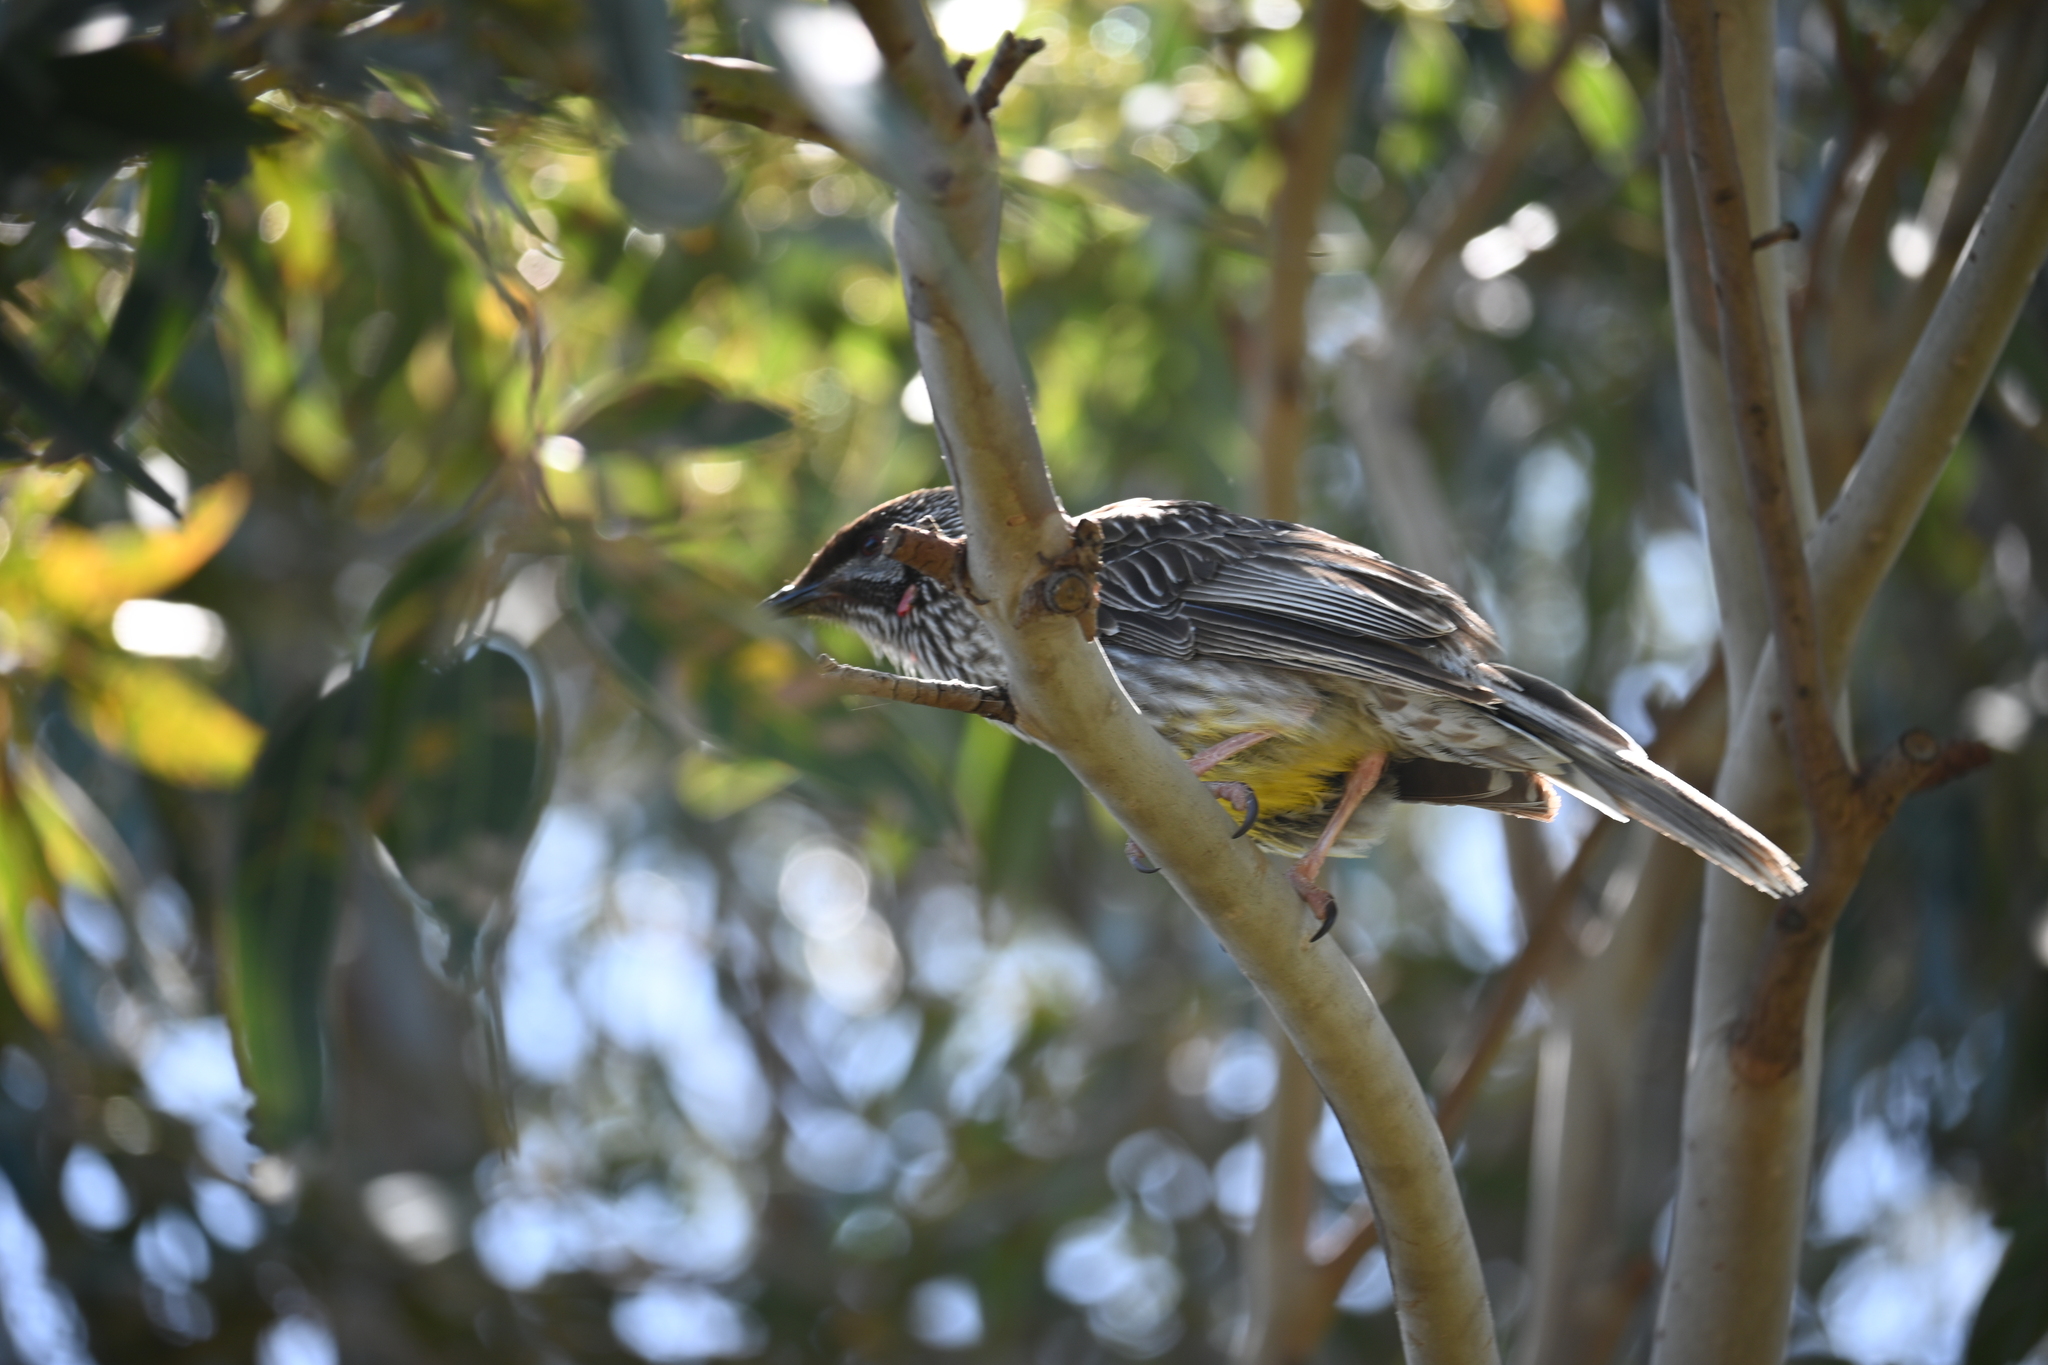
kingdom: Animalia
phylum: Chordata
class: Aves
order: Passeriformes
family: Meliphagidae
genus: Anthochaera
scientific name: Anthochaera carunculata
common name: Red wattlebird
